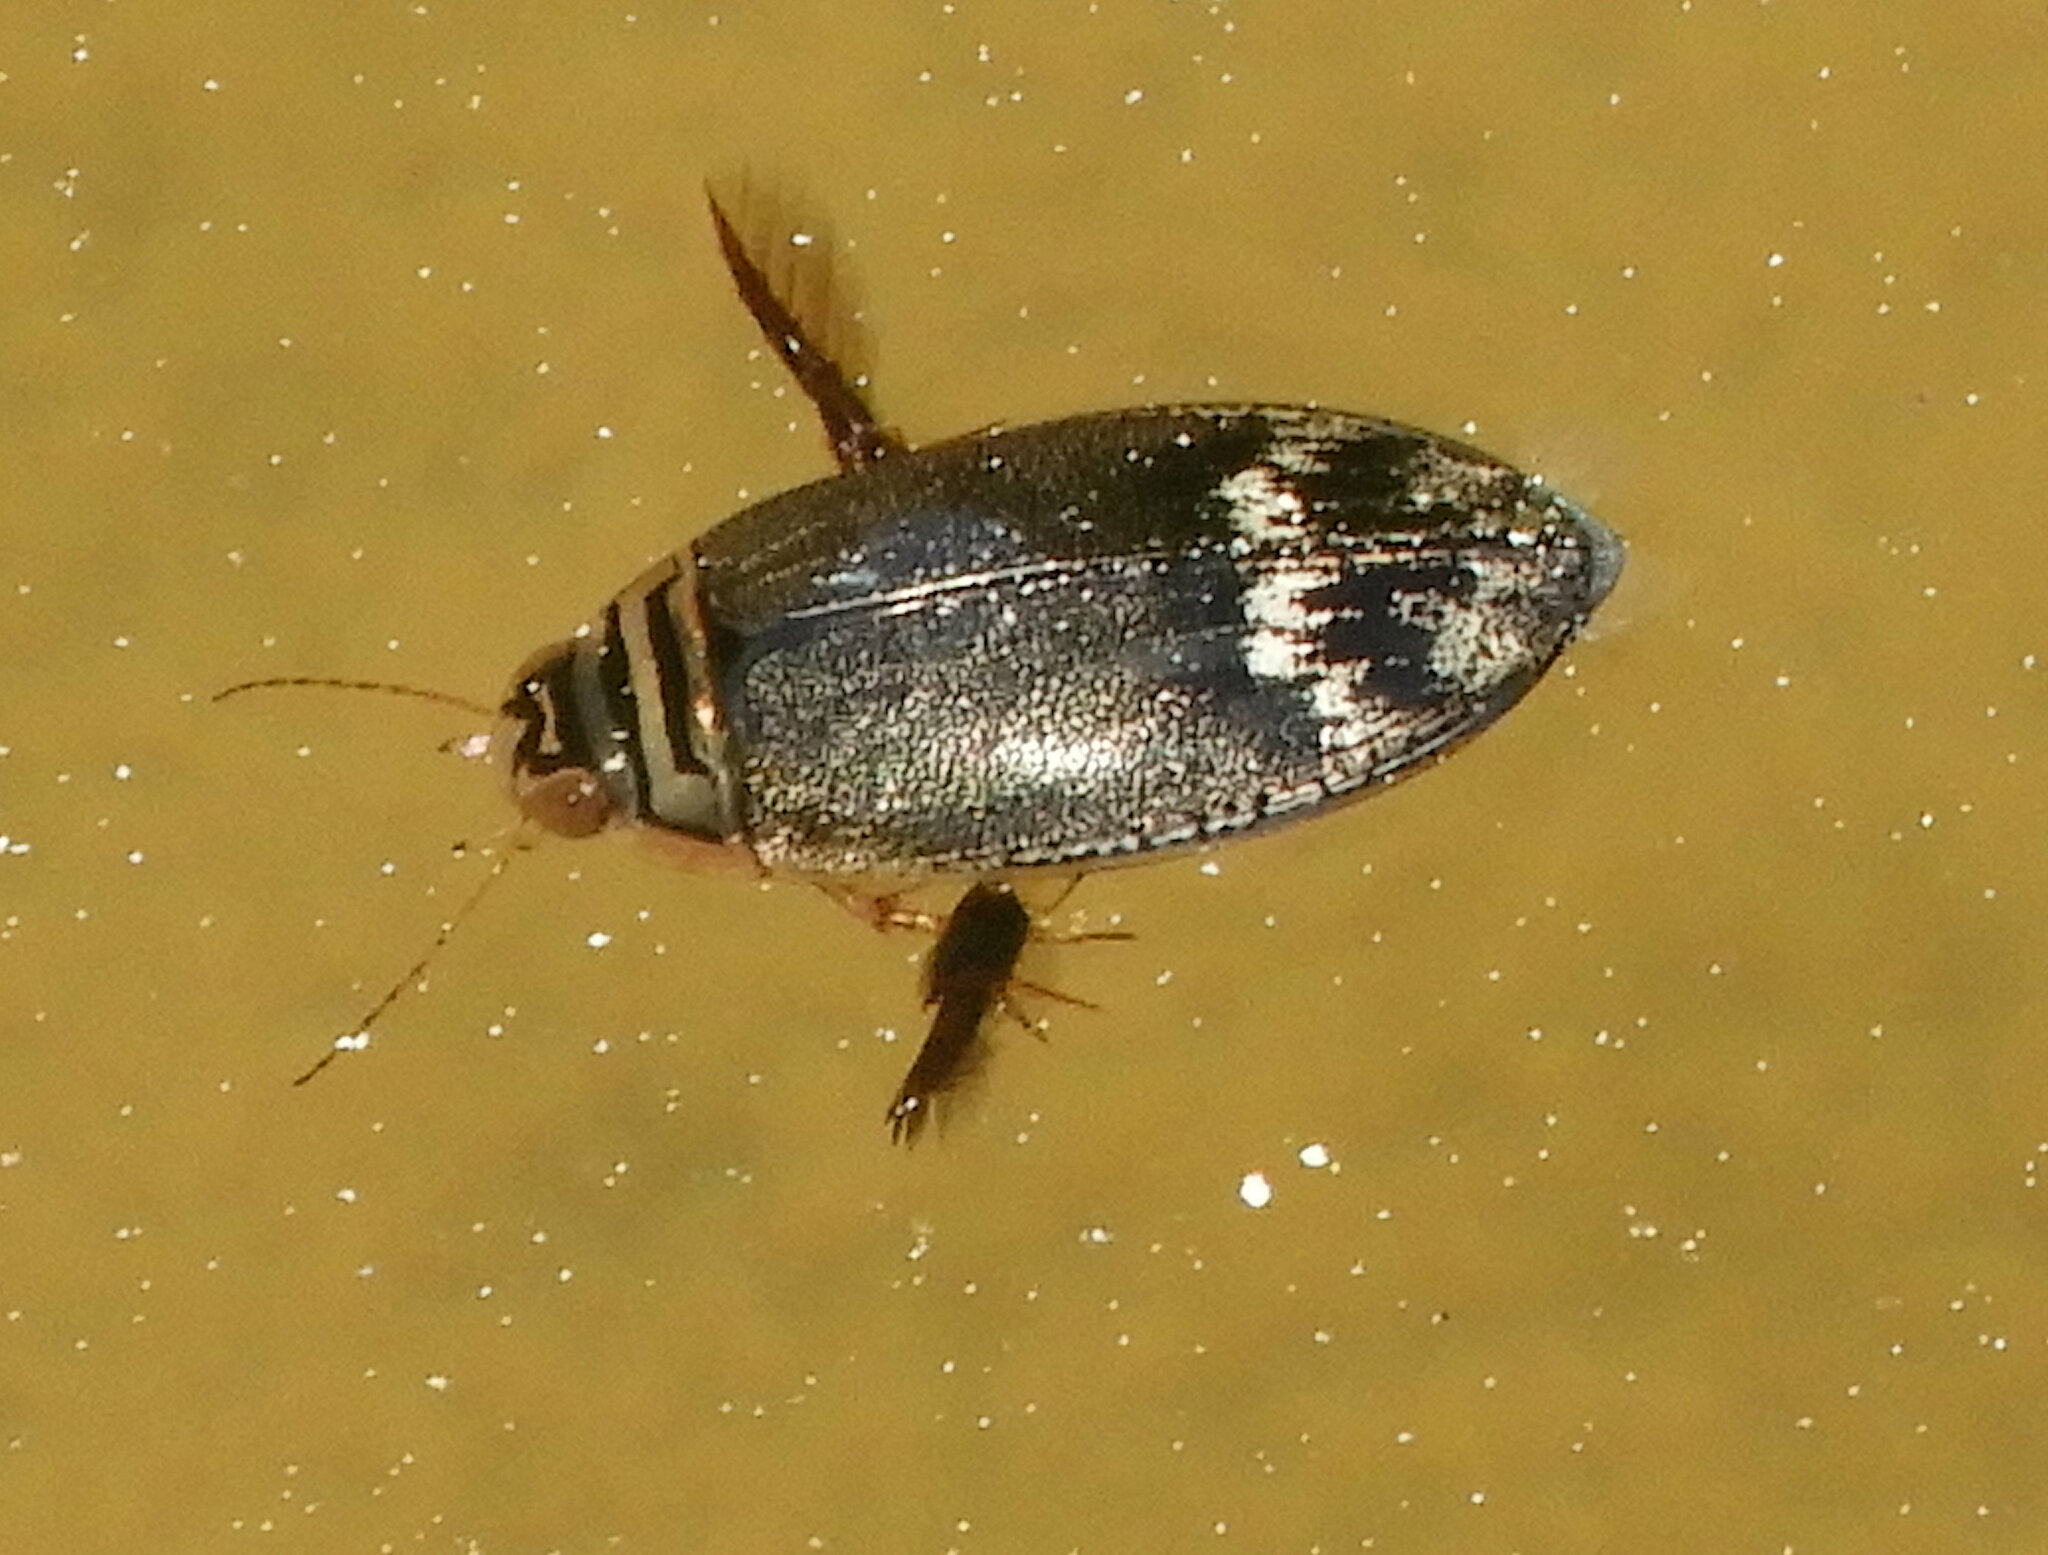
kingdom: Animalia
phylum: Arthropoda
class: Insecta
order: Coleoptera
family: Dytiscidae
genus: Acilius
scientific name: Acilius abbreviatus
